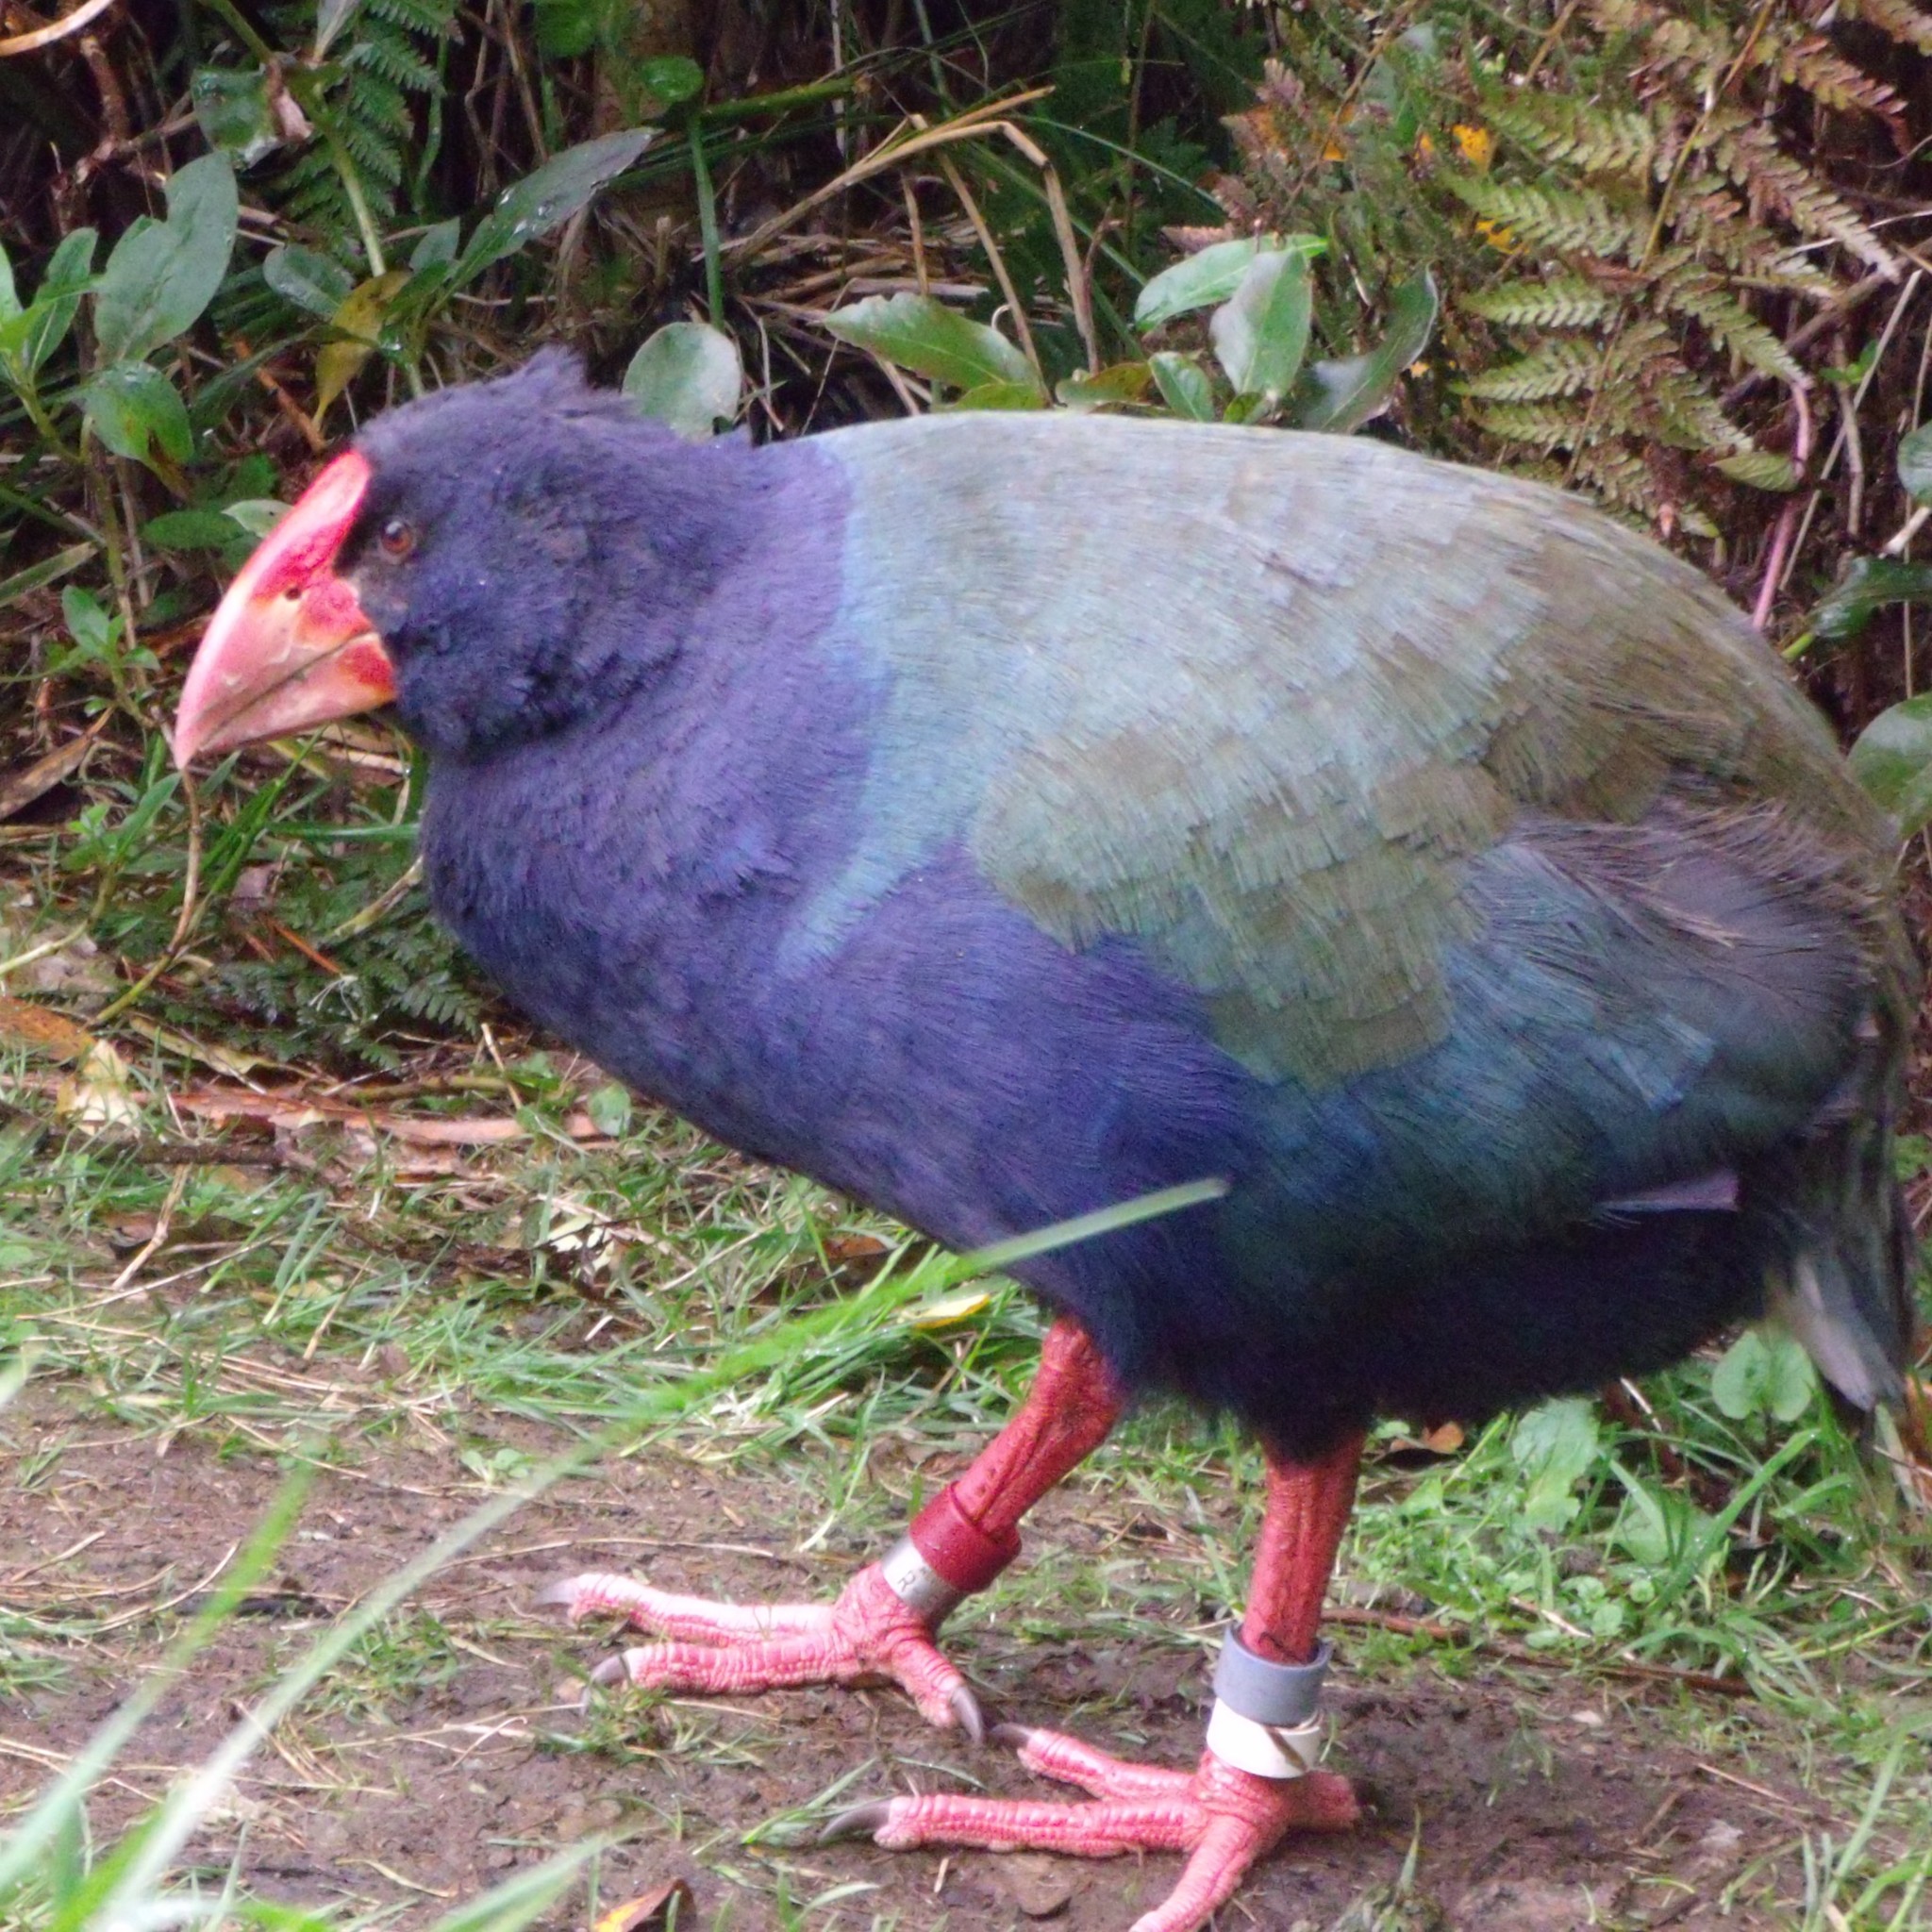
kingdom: Animalia
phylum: Chordata
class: Aves
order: Gruiformes
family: Rallidae
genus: Porphyrio
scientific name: Porphyrio hochstetteri
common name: South island takahe
